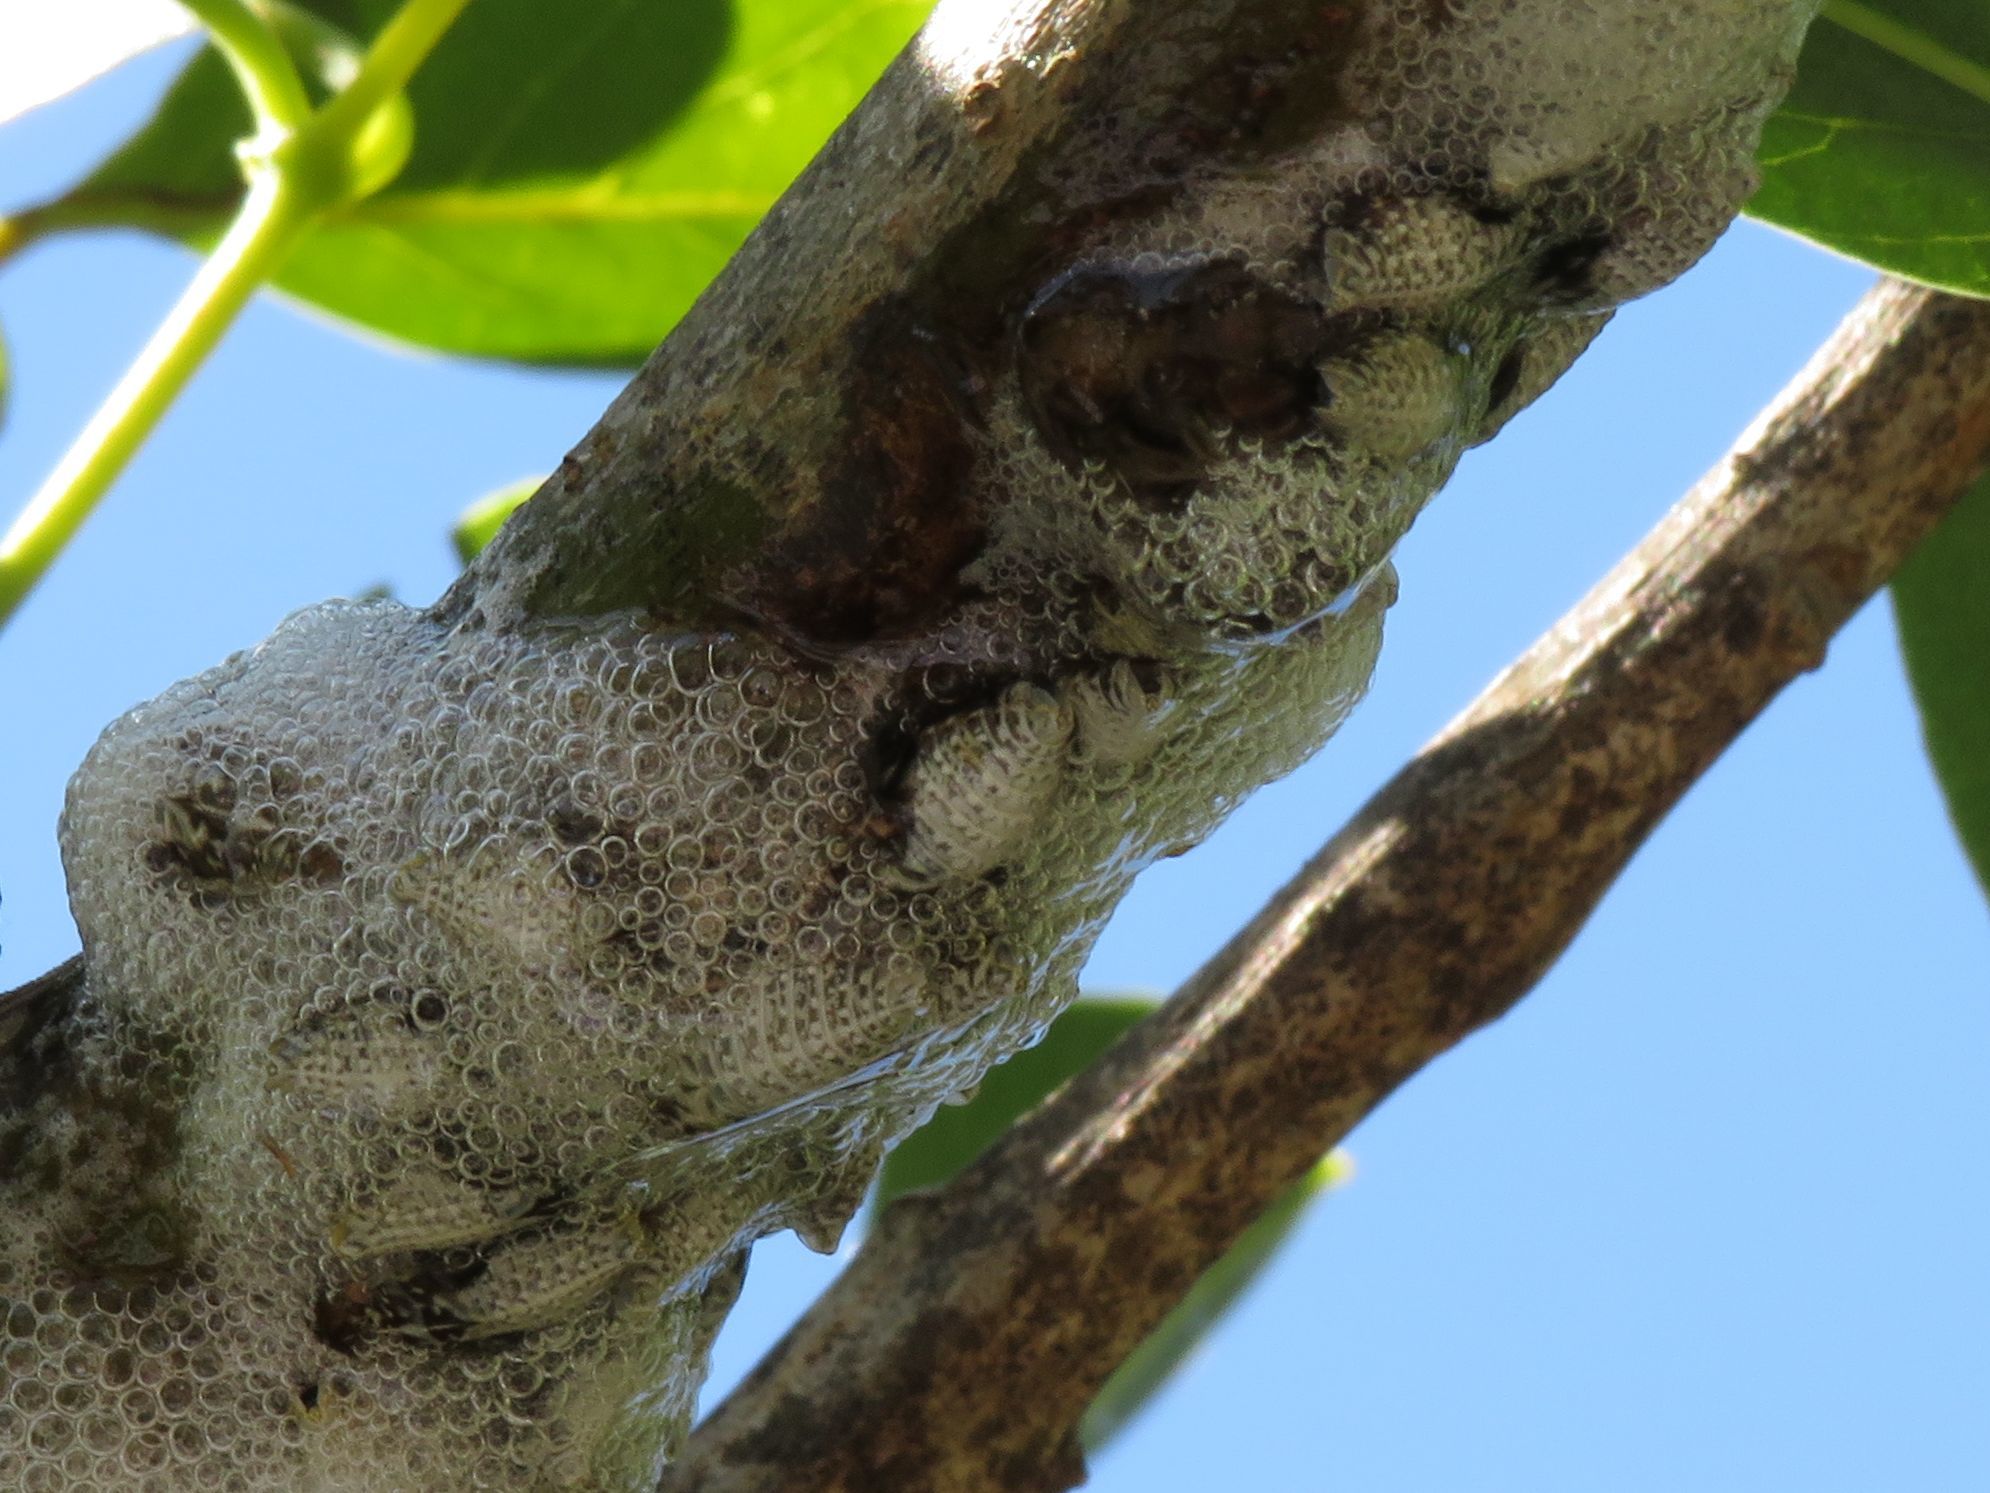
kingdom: Animalia
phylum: Arthropoda
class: Insecta
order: Hemiptera
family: Aphrophoridae
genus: Cephisus
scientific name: Cephisus siccifolius
